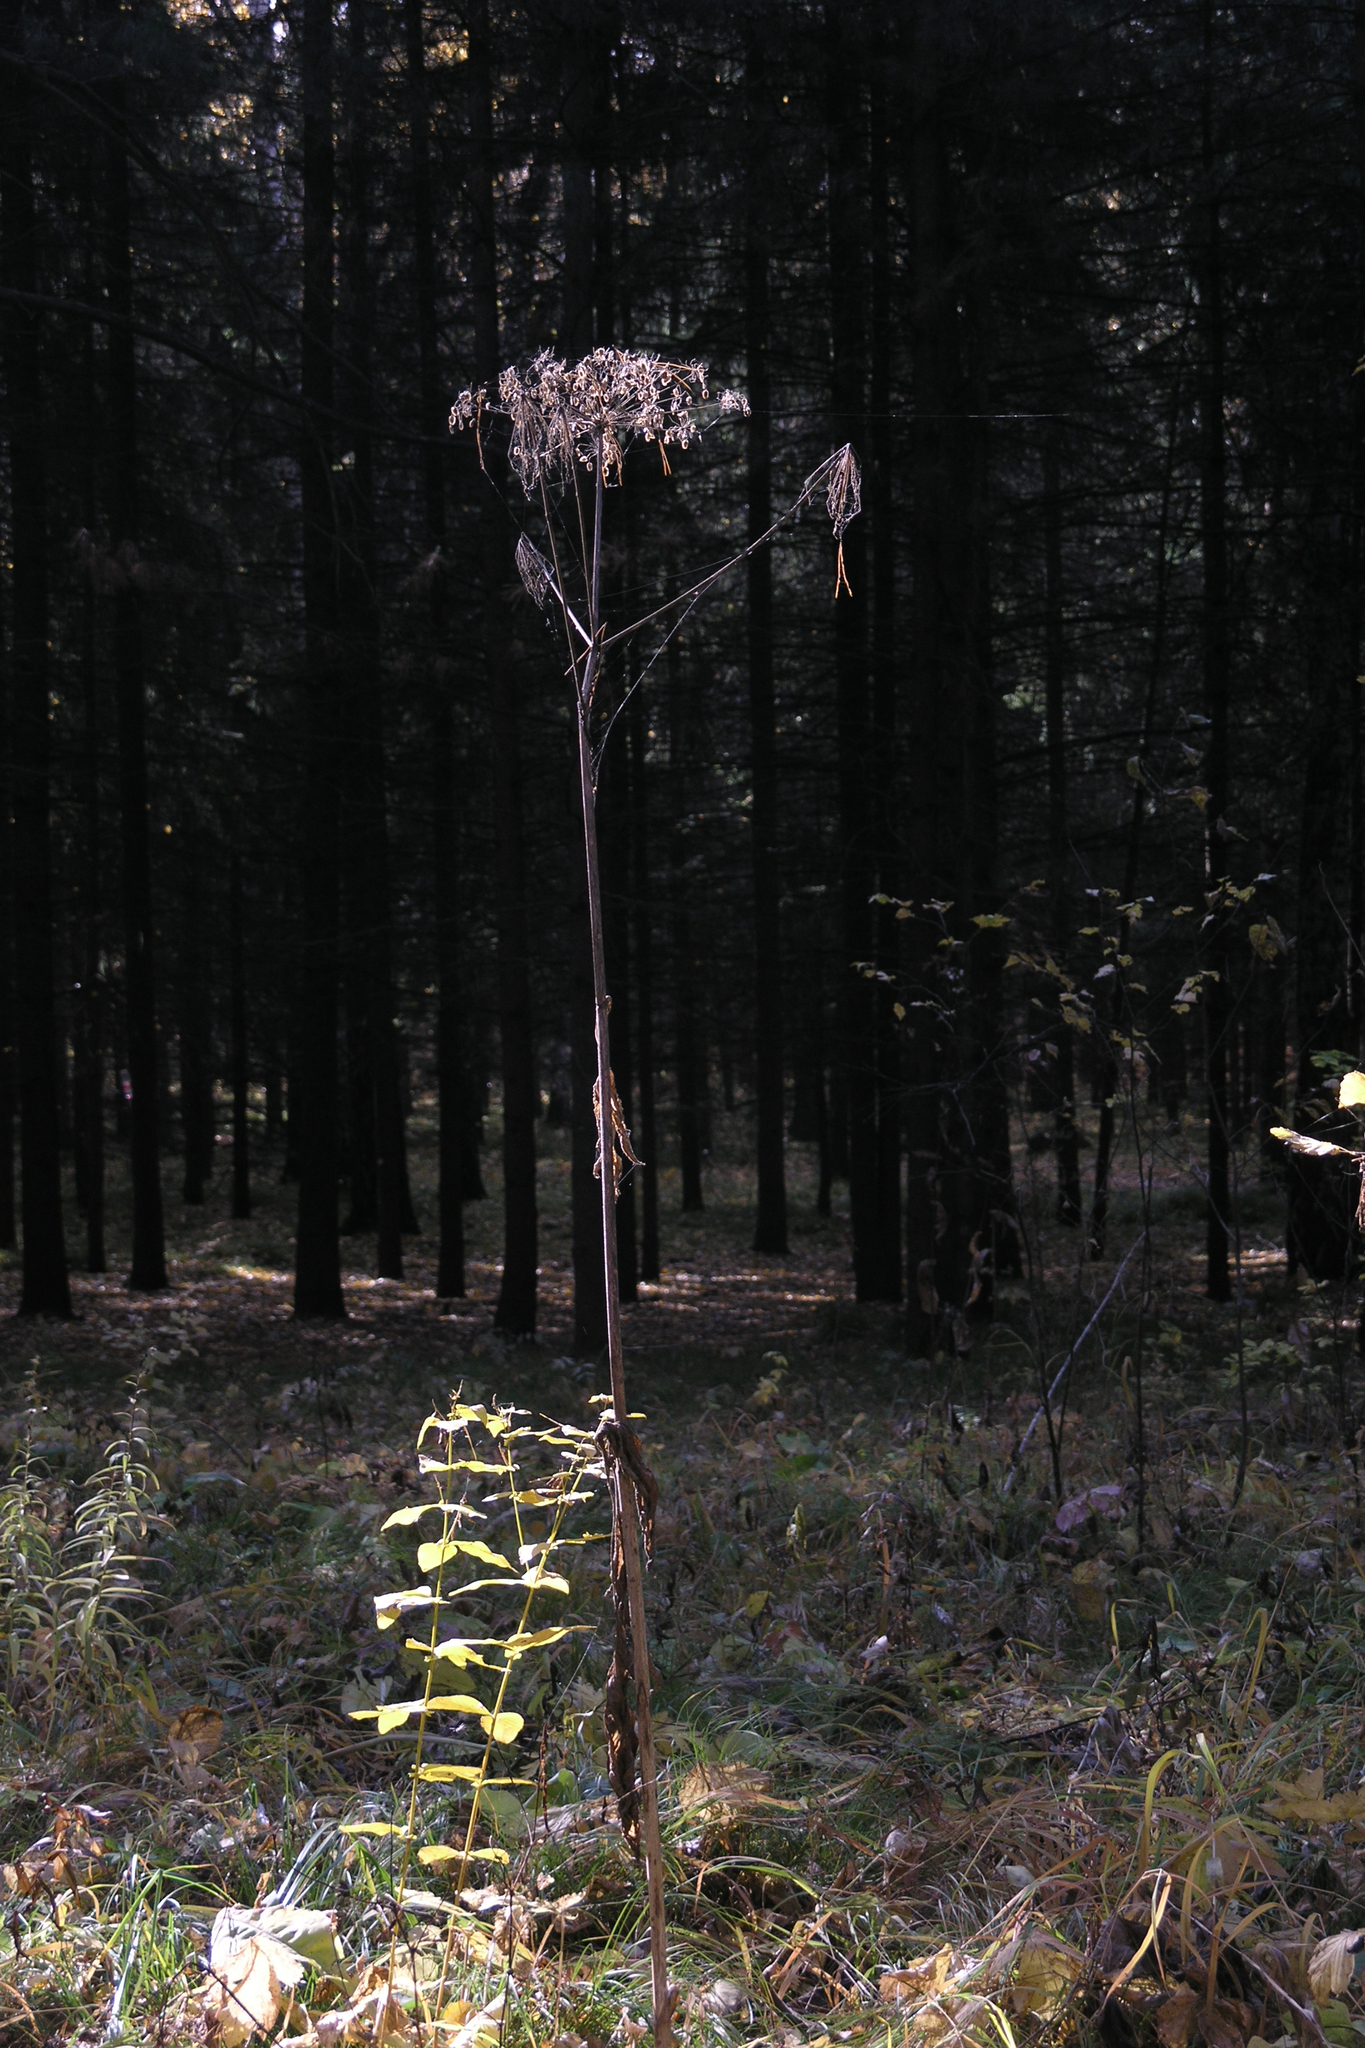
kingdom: Plantae
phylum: Tracheophyta
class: Magnoliopsida
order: Apiales
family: Apiaceae
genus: Heracleum
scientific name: Heracleum dissectum
